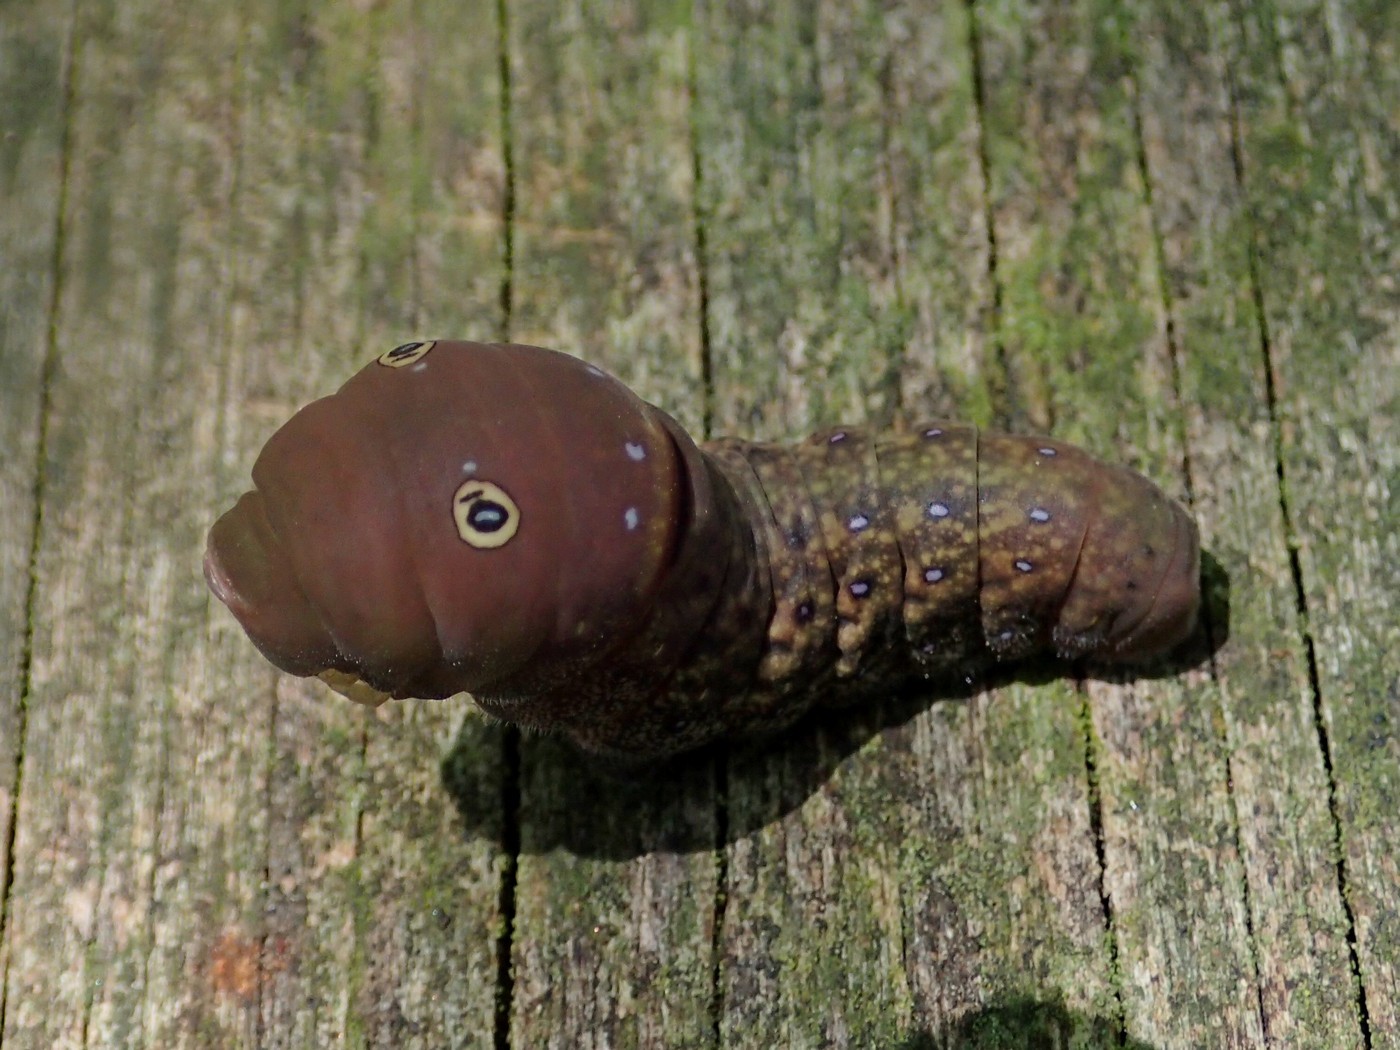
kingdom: Animalia
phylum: Arthropoda
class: Insecta
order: Lepidoptera
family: Papilionidae
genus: Papilio
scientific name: Papilio glaucus
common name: Tiger swallowtail
